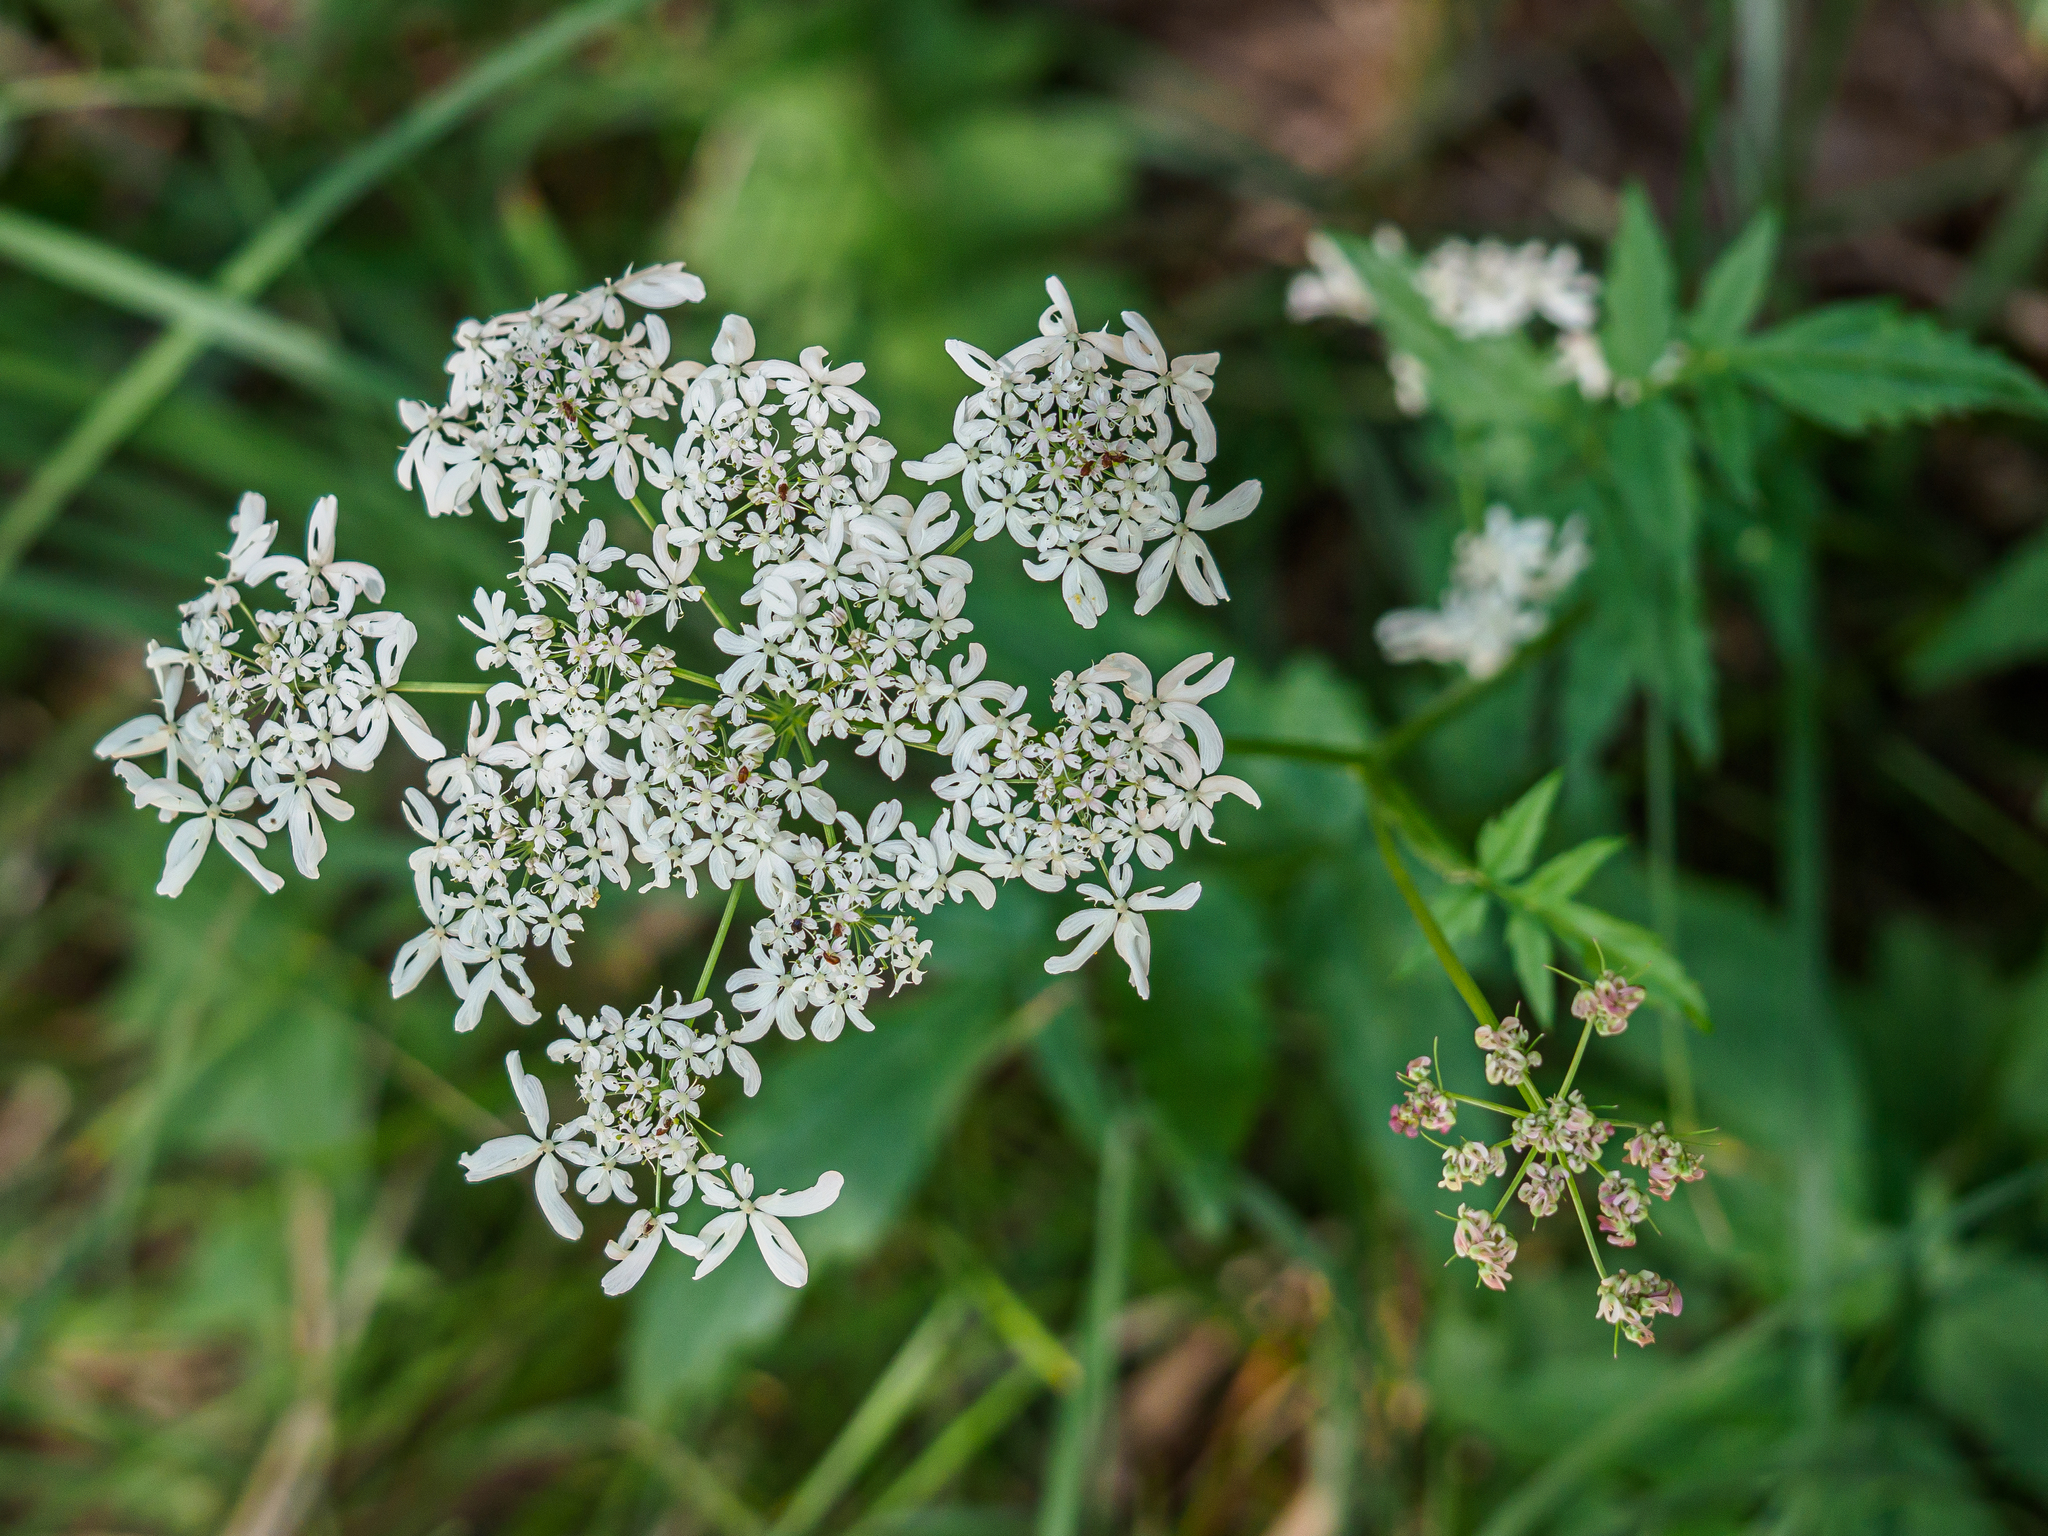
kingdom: Plantae
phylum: Tracheophyta
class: Magnoliopsida
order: Apiales
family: Apiaceae
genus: Heracleum
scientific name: Heracleum austriacum
